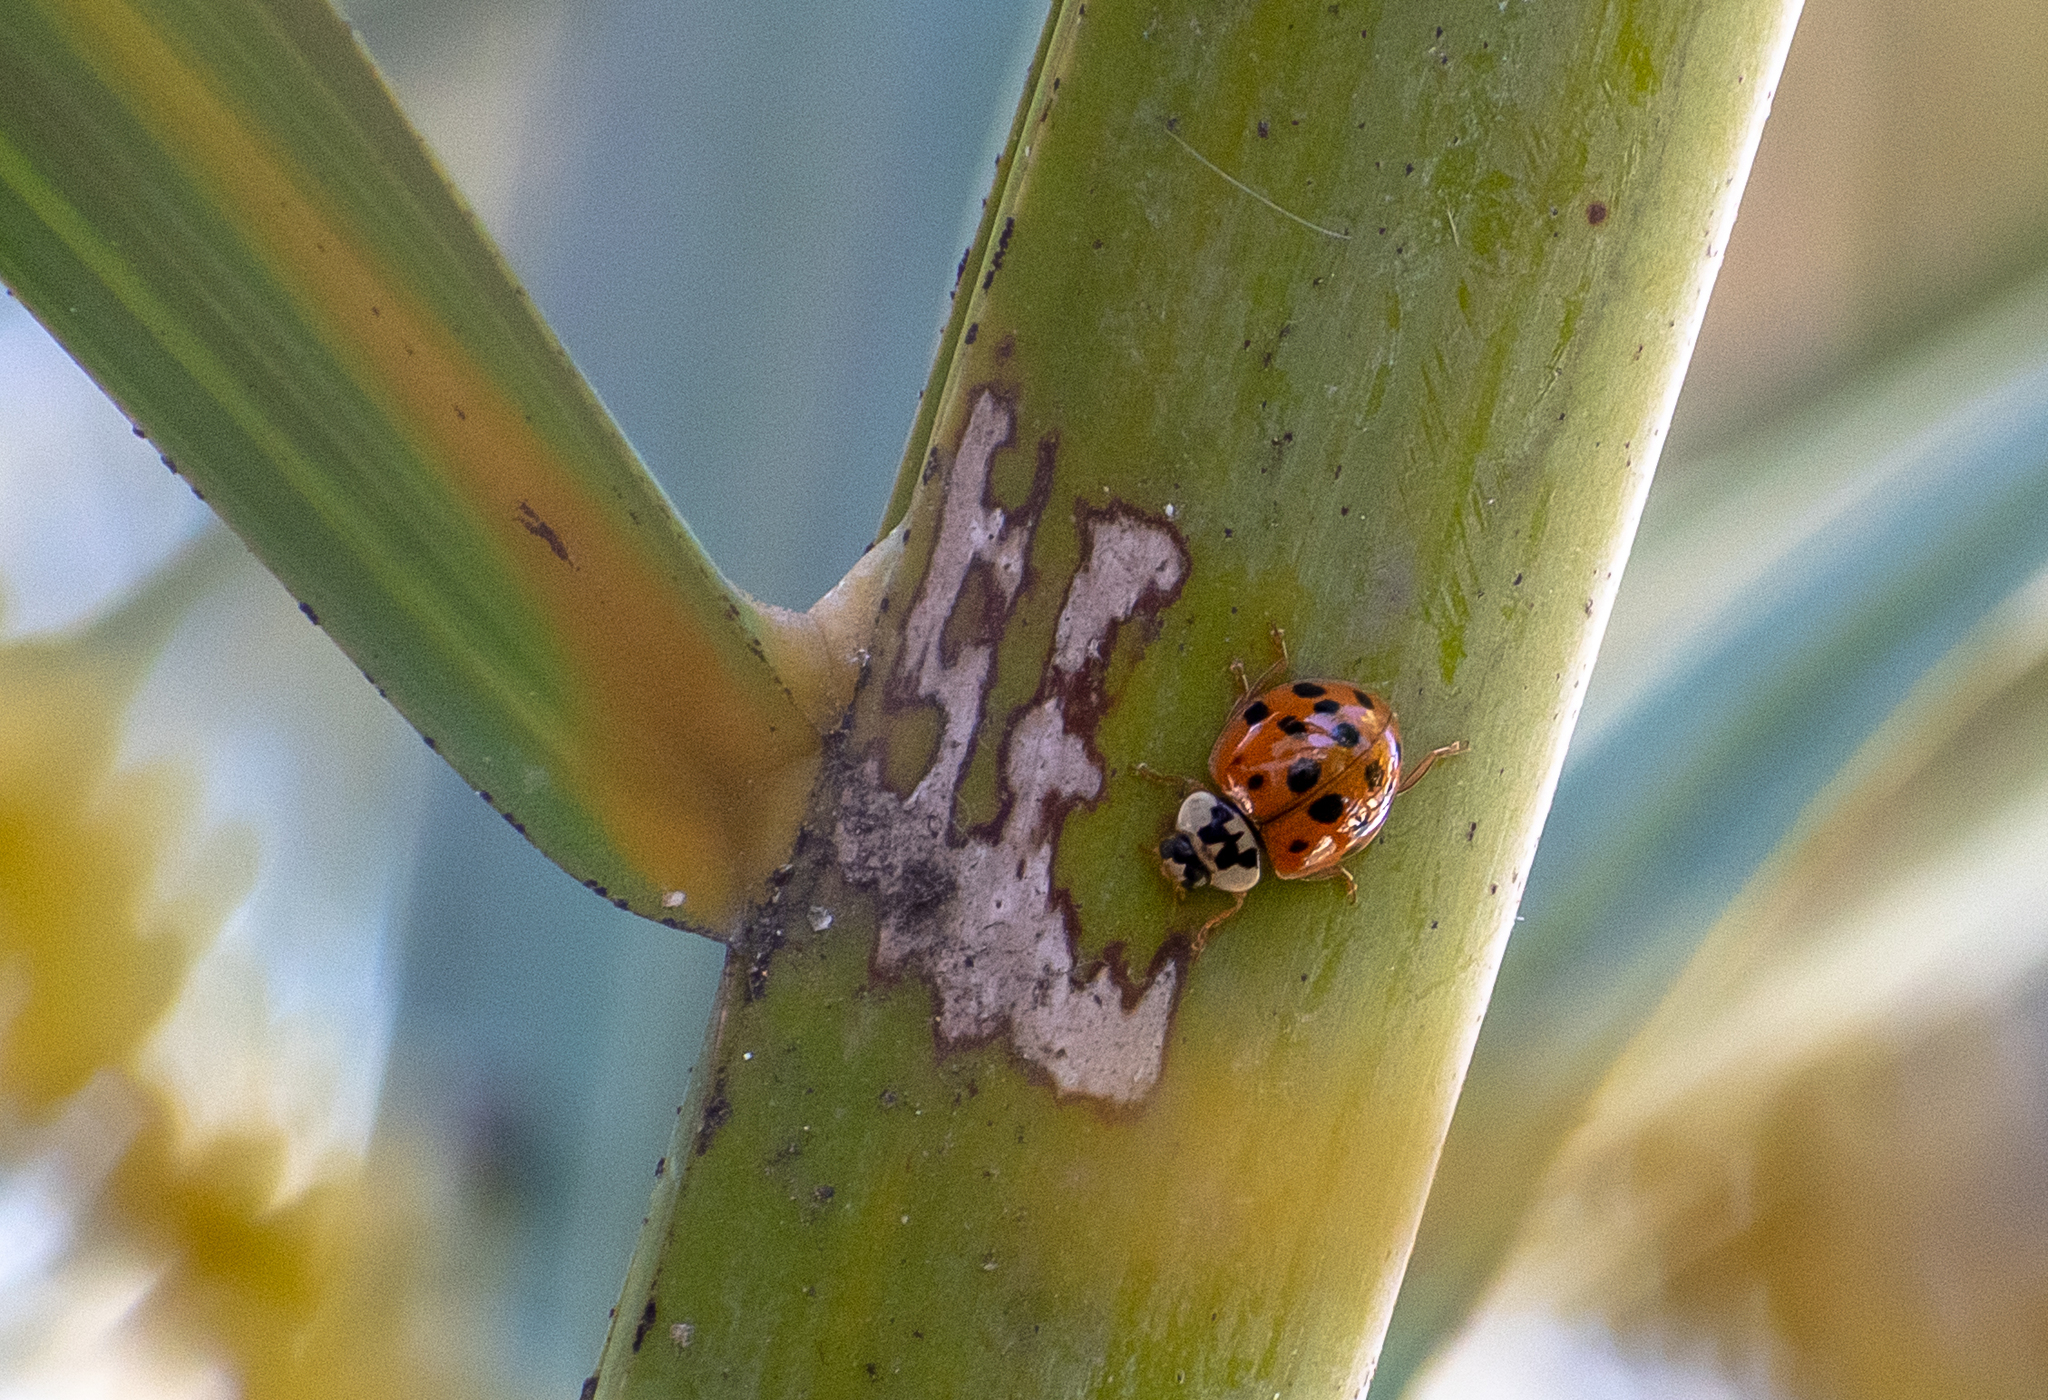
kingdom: Animalia
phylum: Arthropoda
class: Insecta
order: Coleoptera
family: Coccinellidae
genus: Harmonia
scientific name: Harmonia axyridis
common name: Harlequin ladybird
